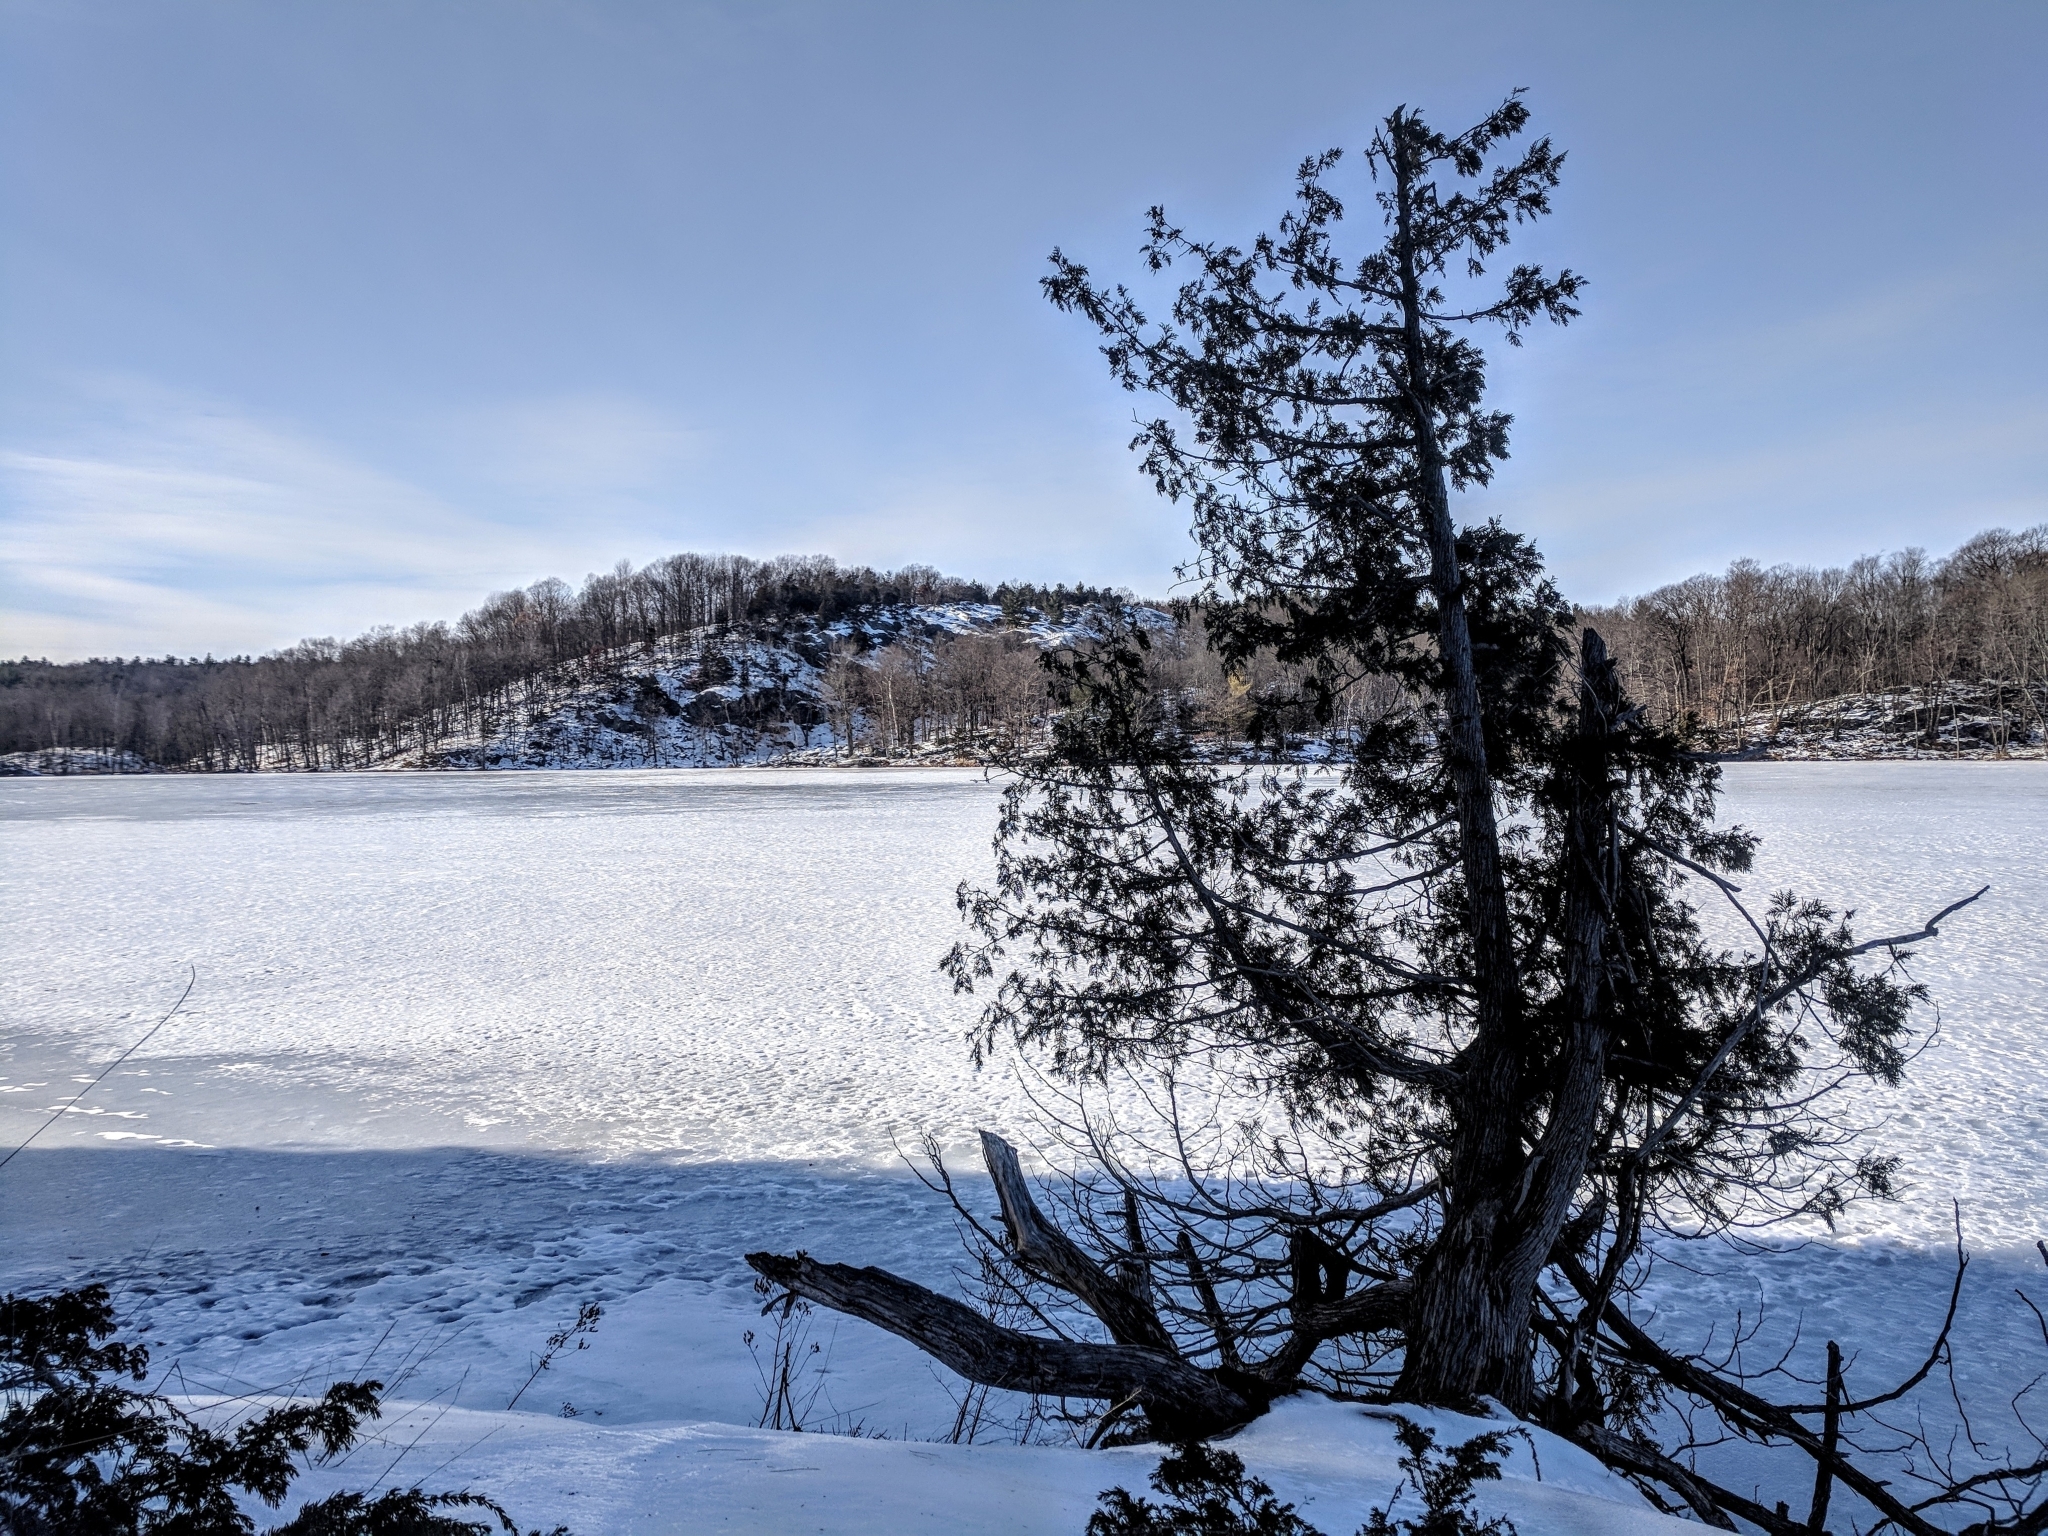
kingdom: Plantae
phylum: Tracheophyta
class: Pinopsida
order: Pinales
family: Cupressaceae
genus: Thuja
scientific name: Thuja occidentalis
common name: Northern white-cedar
